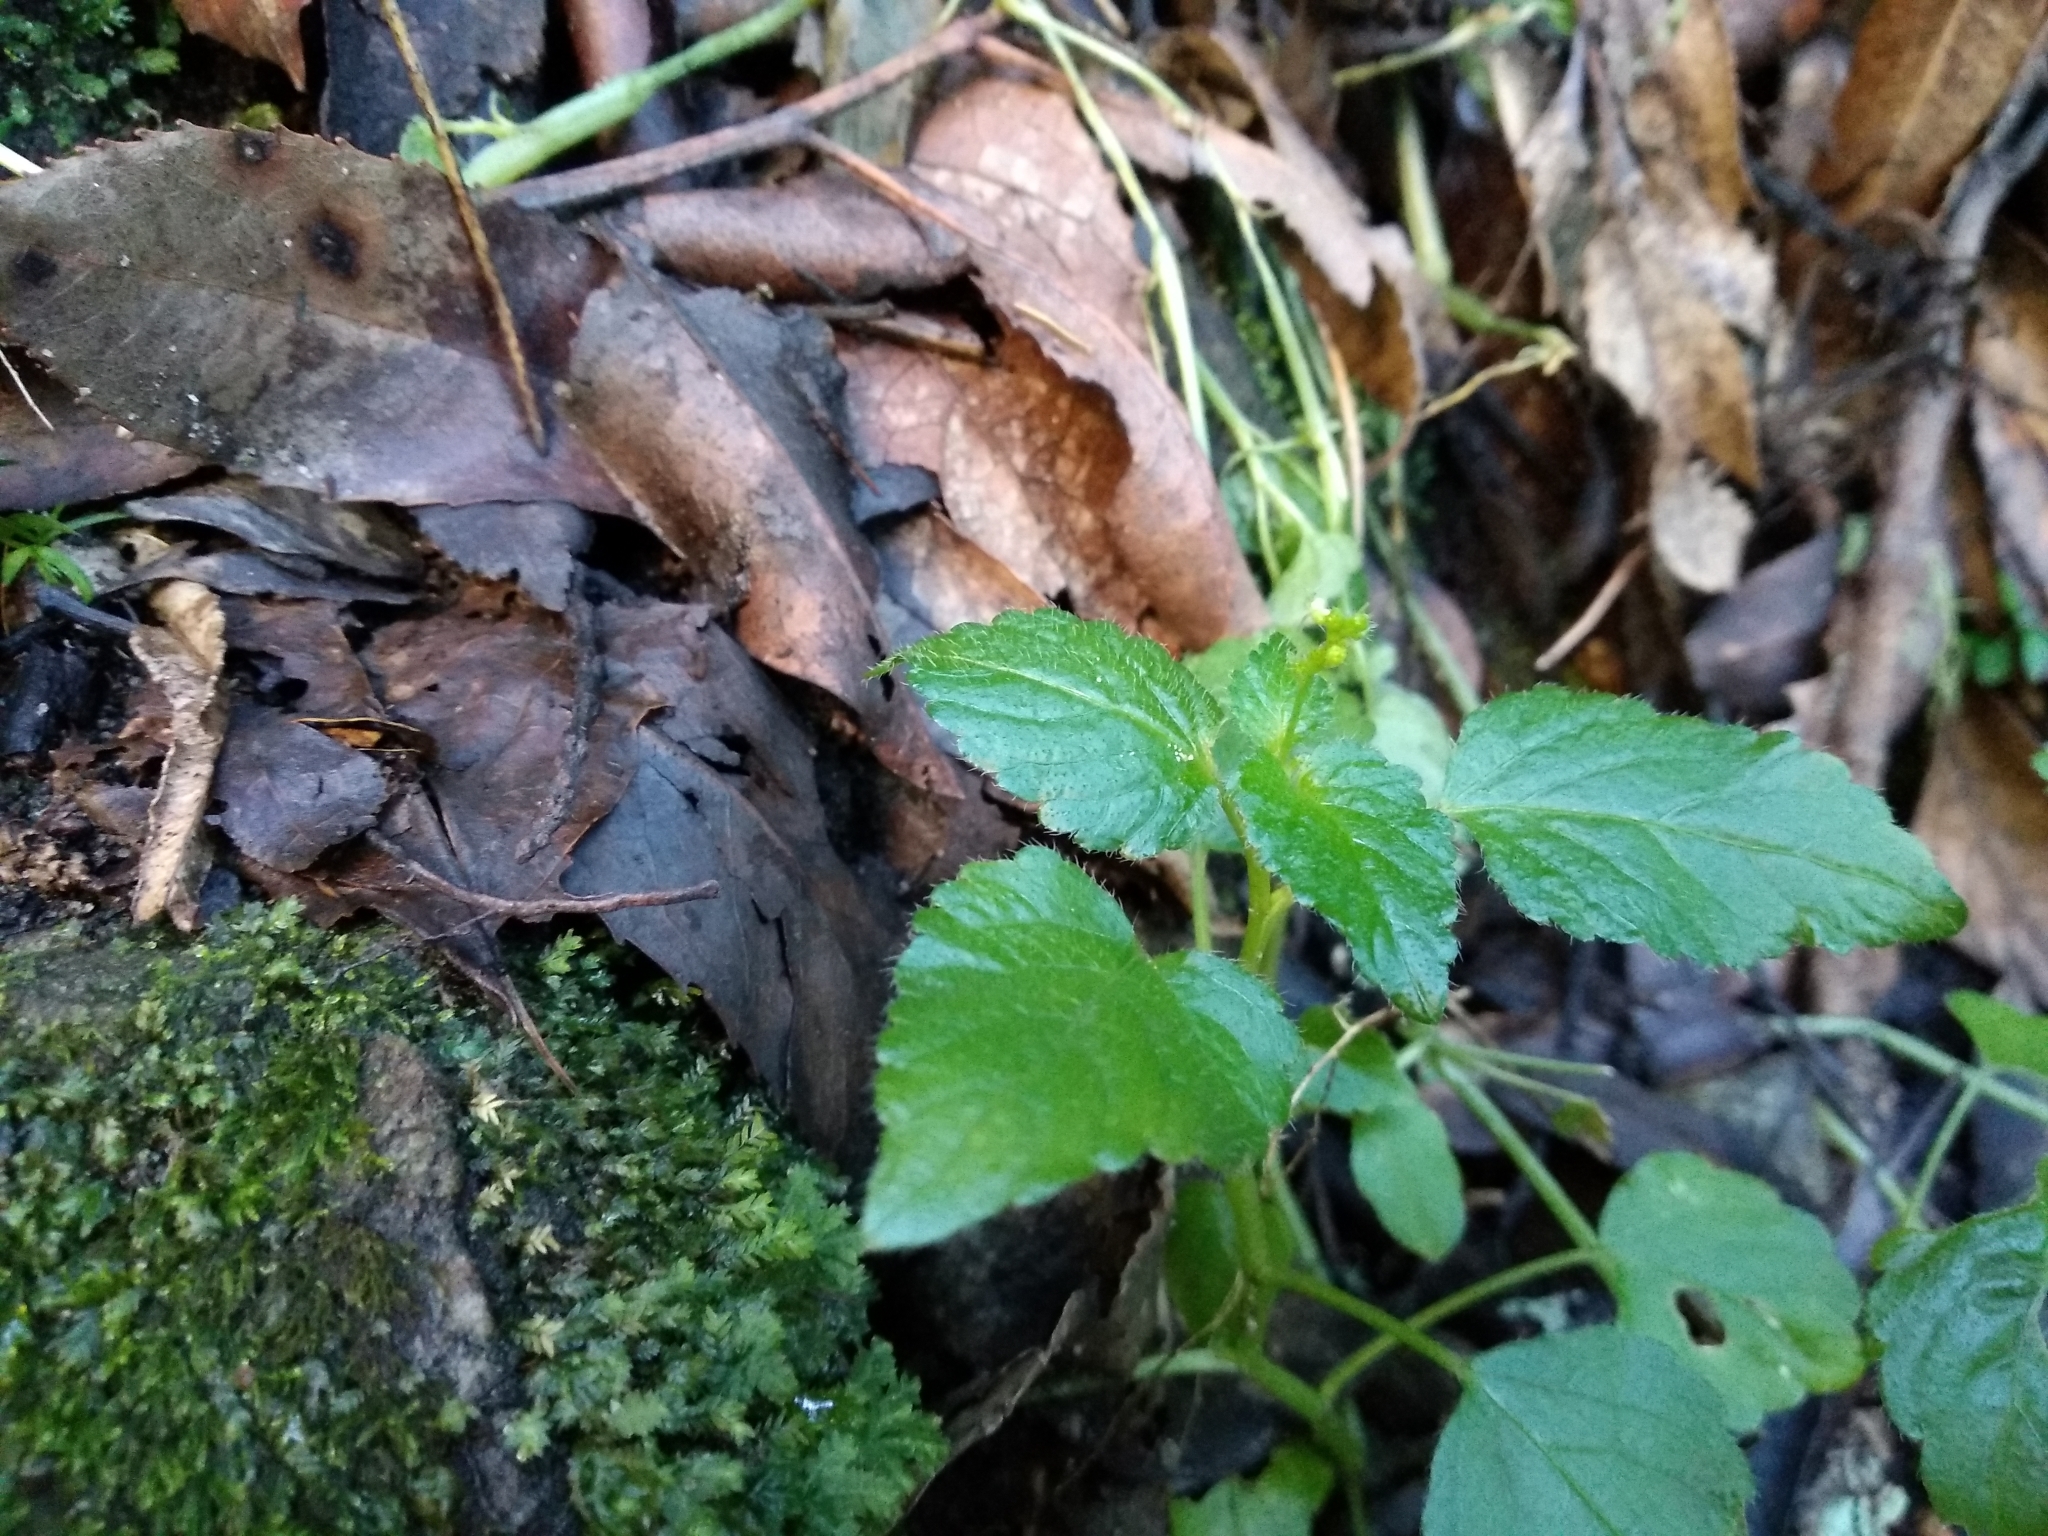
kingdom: Plantae
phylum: Tracheophyta
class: Magnoliopsida
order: Malpighiales
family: Euphorbiaceae
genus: Leidesia
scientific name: Leidesia procumbens
